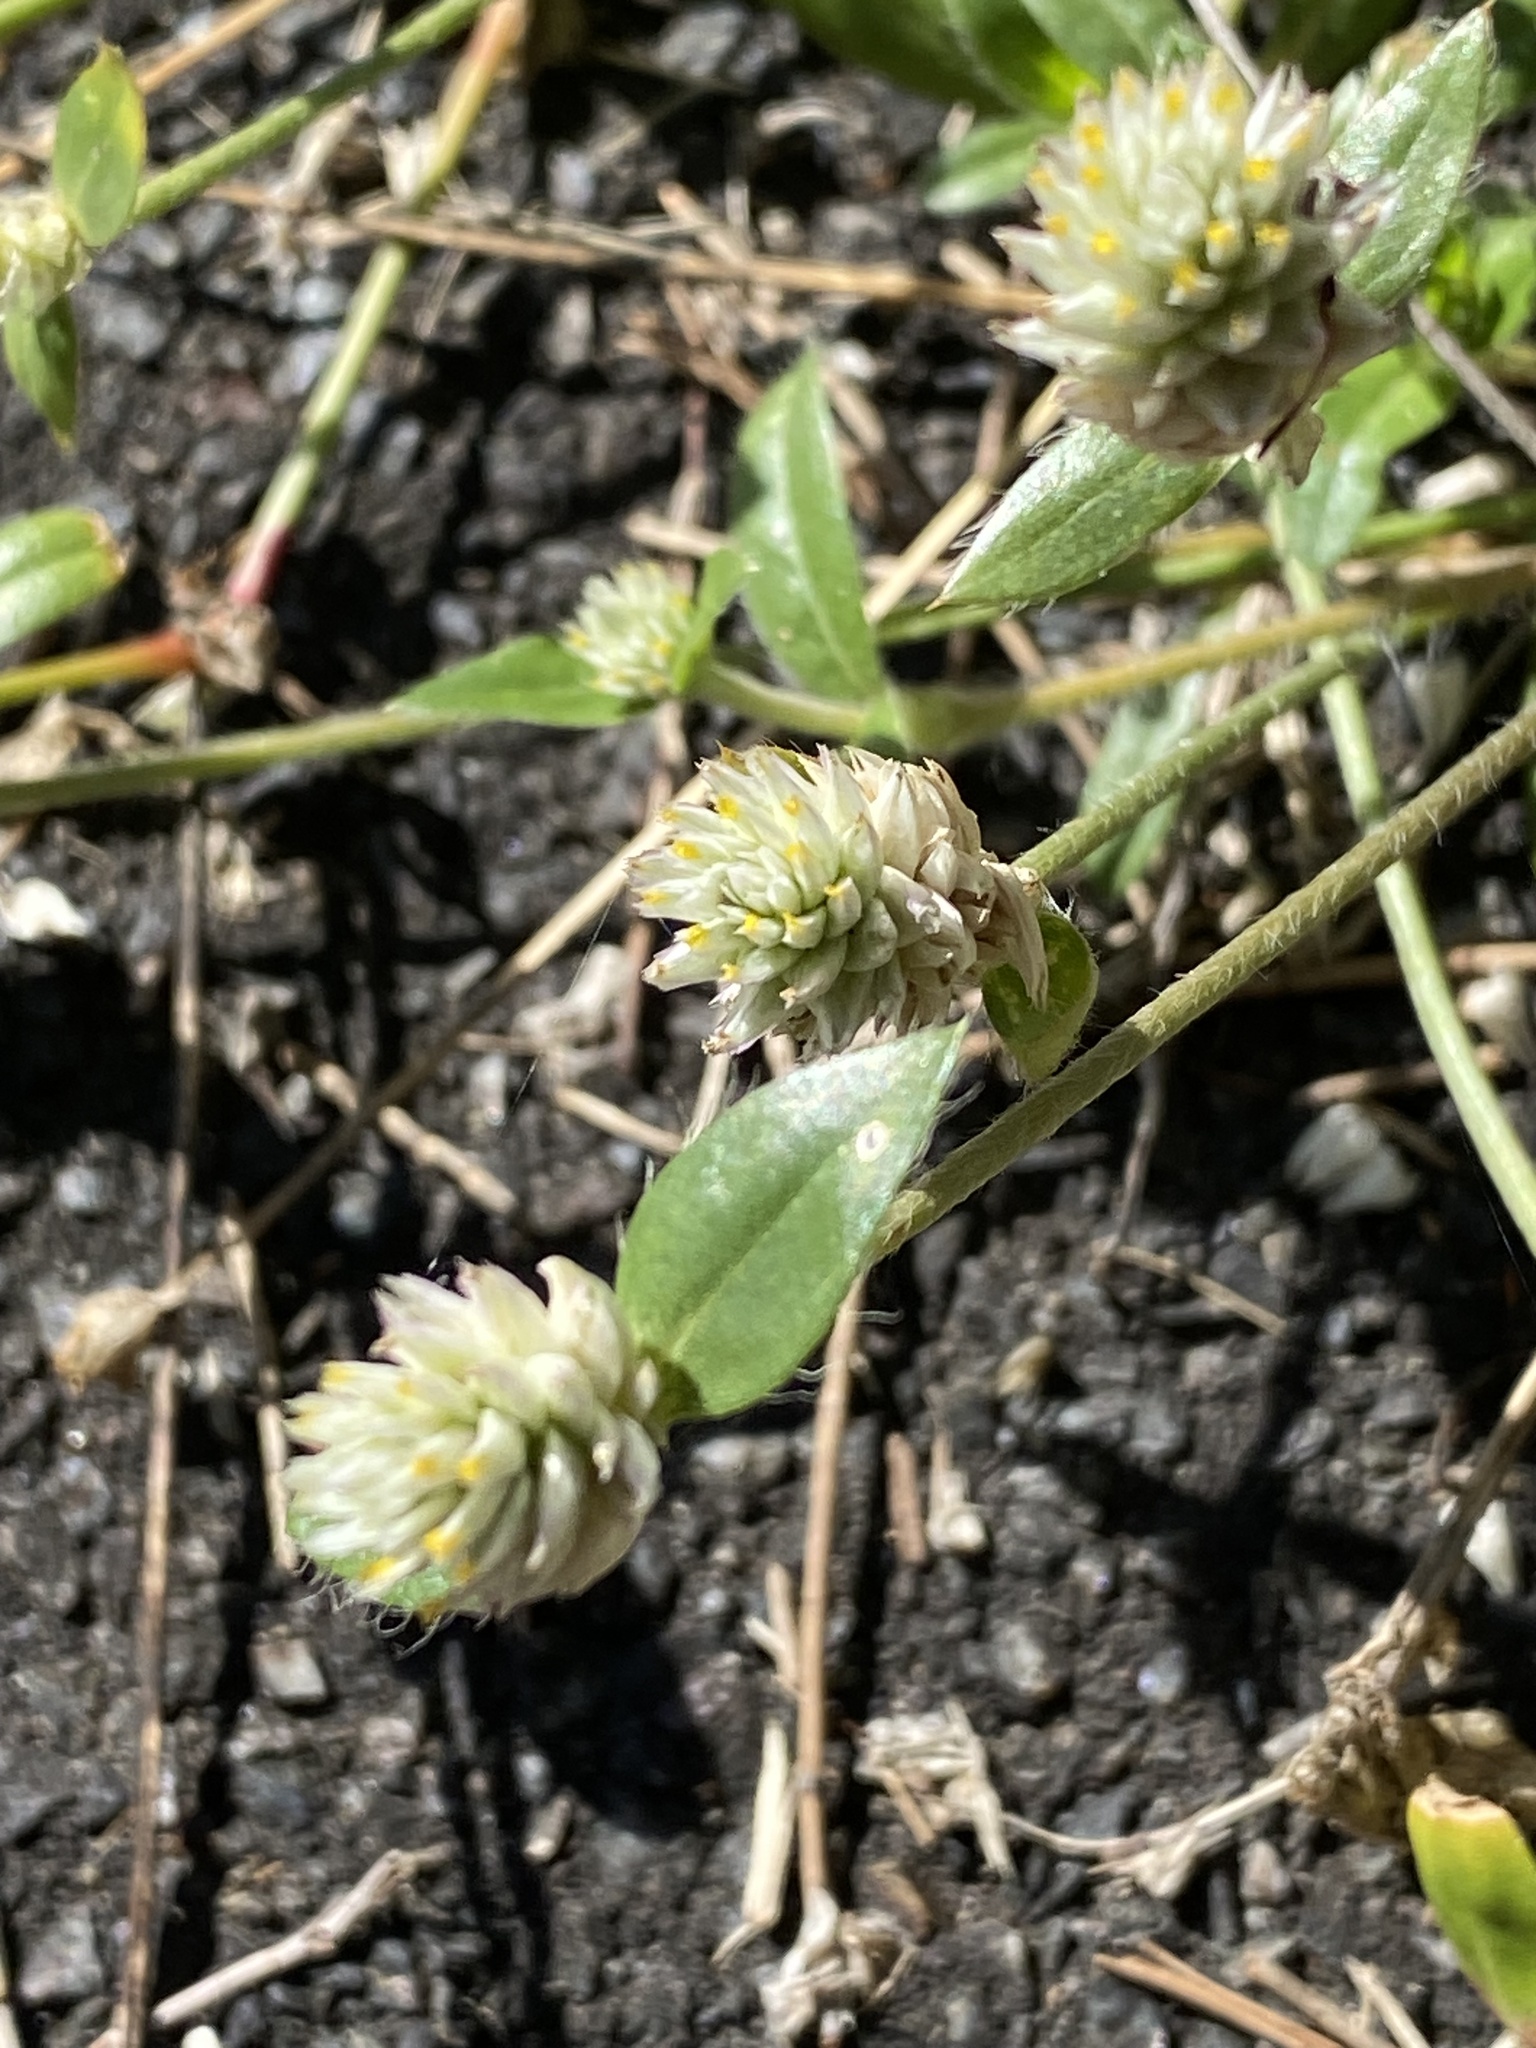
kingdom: Plantae
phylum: Tracheophyta
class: Magnoliopsida
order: Caryophyllales
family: Amaranthaceae
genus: Gomphrena
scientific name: Gomphrena celosioides
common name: Gomphrena-weed
